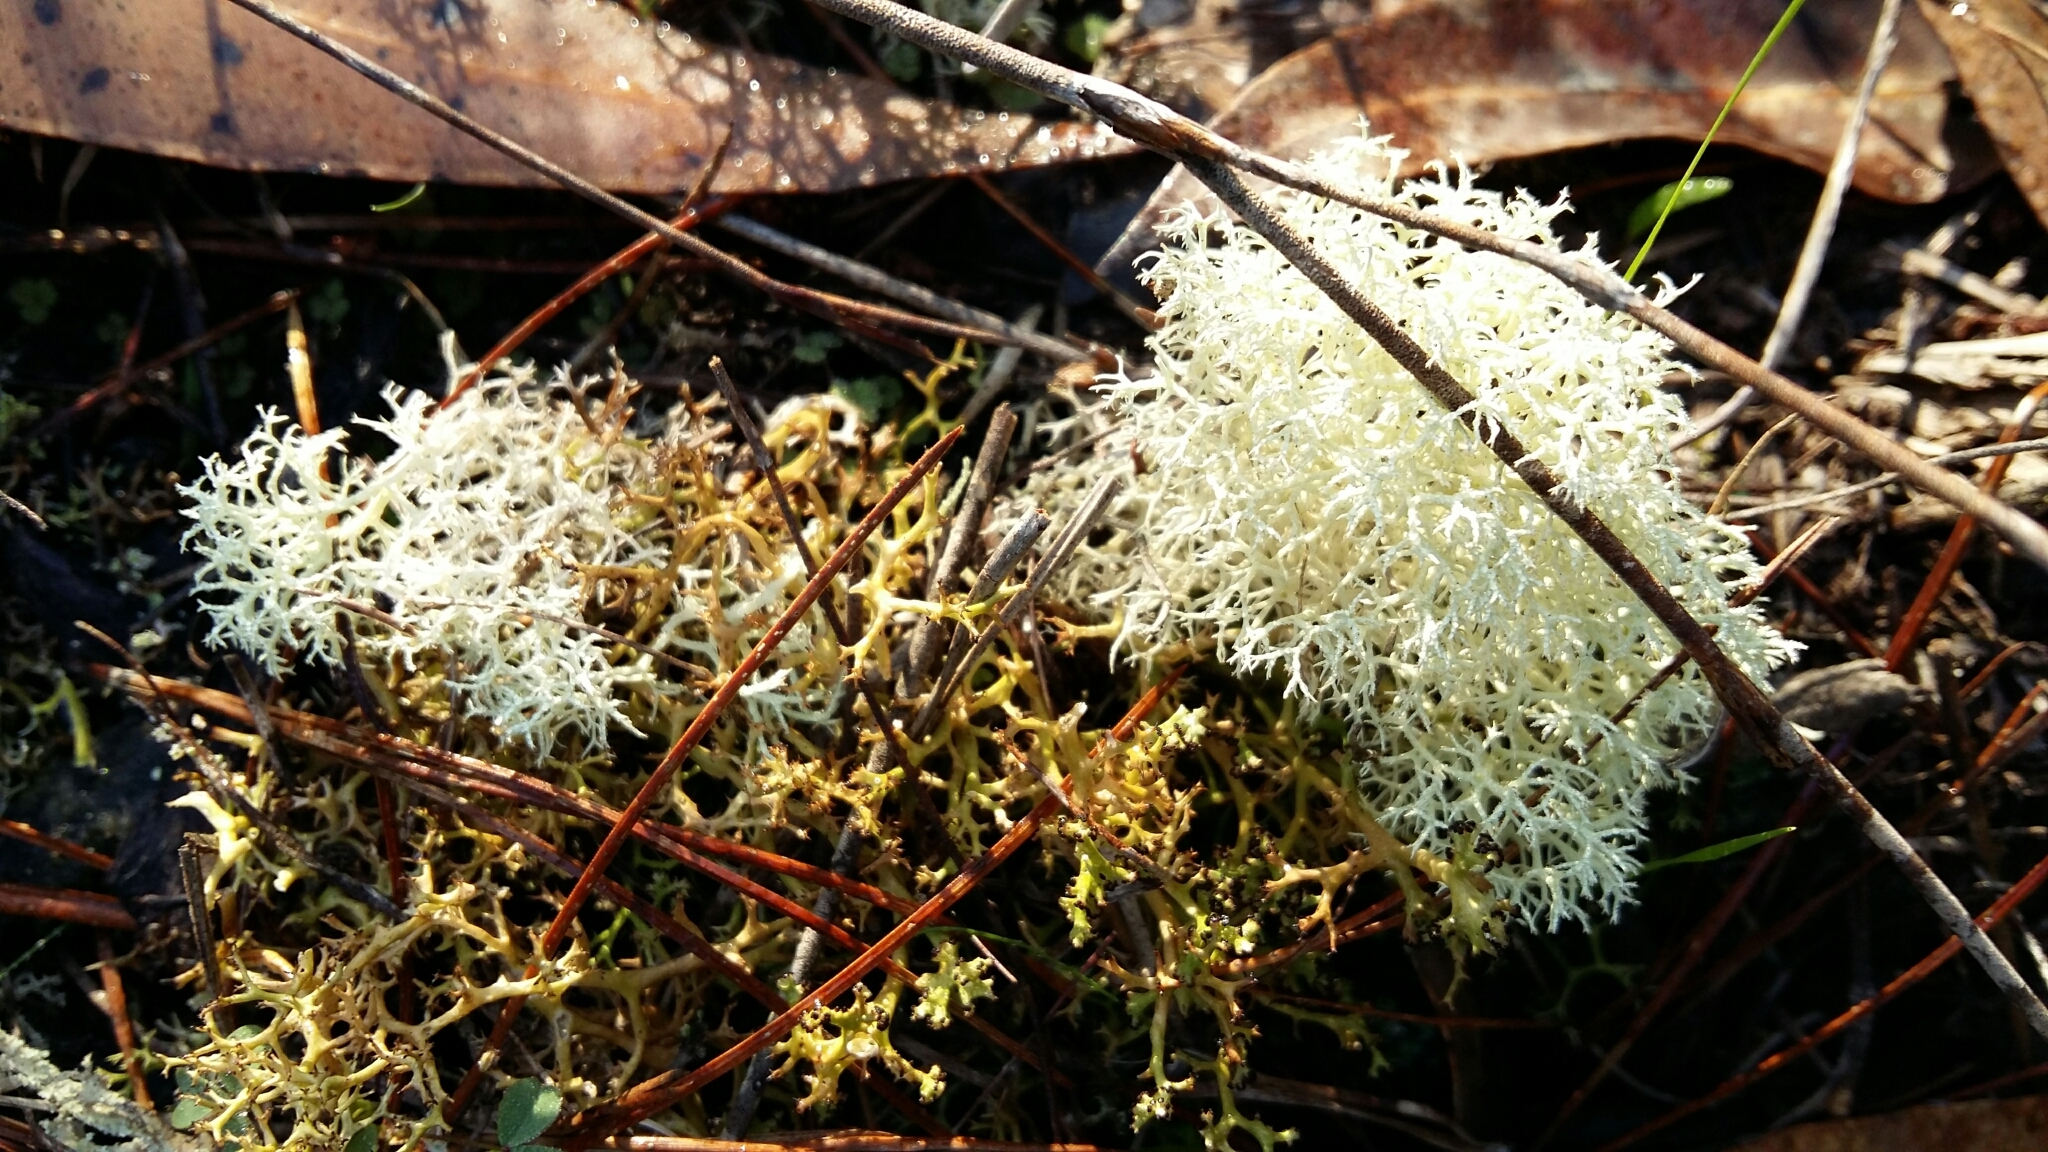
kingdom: Fungi
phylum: Ascomycota
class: Lecanoromycetes
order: Lecanorales
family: Cladoniaceae
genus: Cladonia
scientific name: Cladonia confusa
